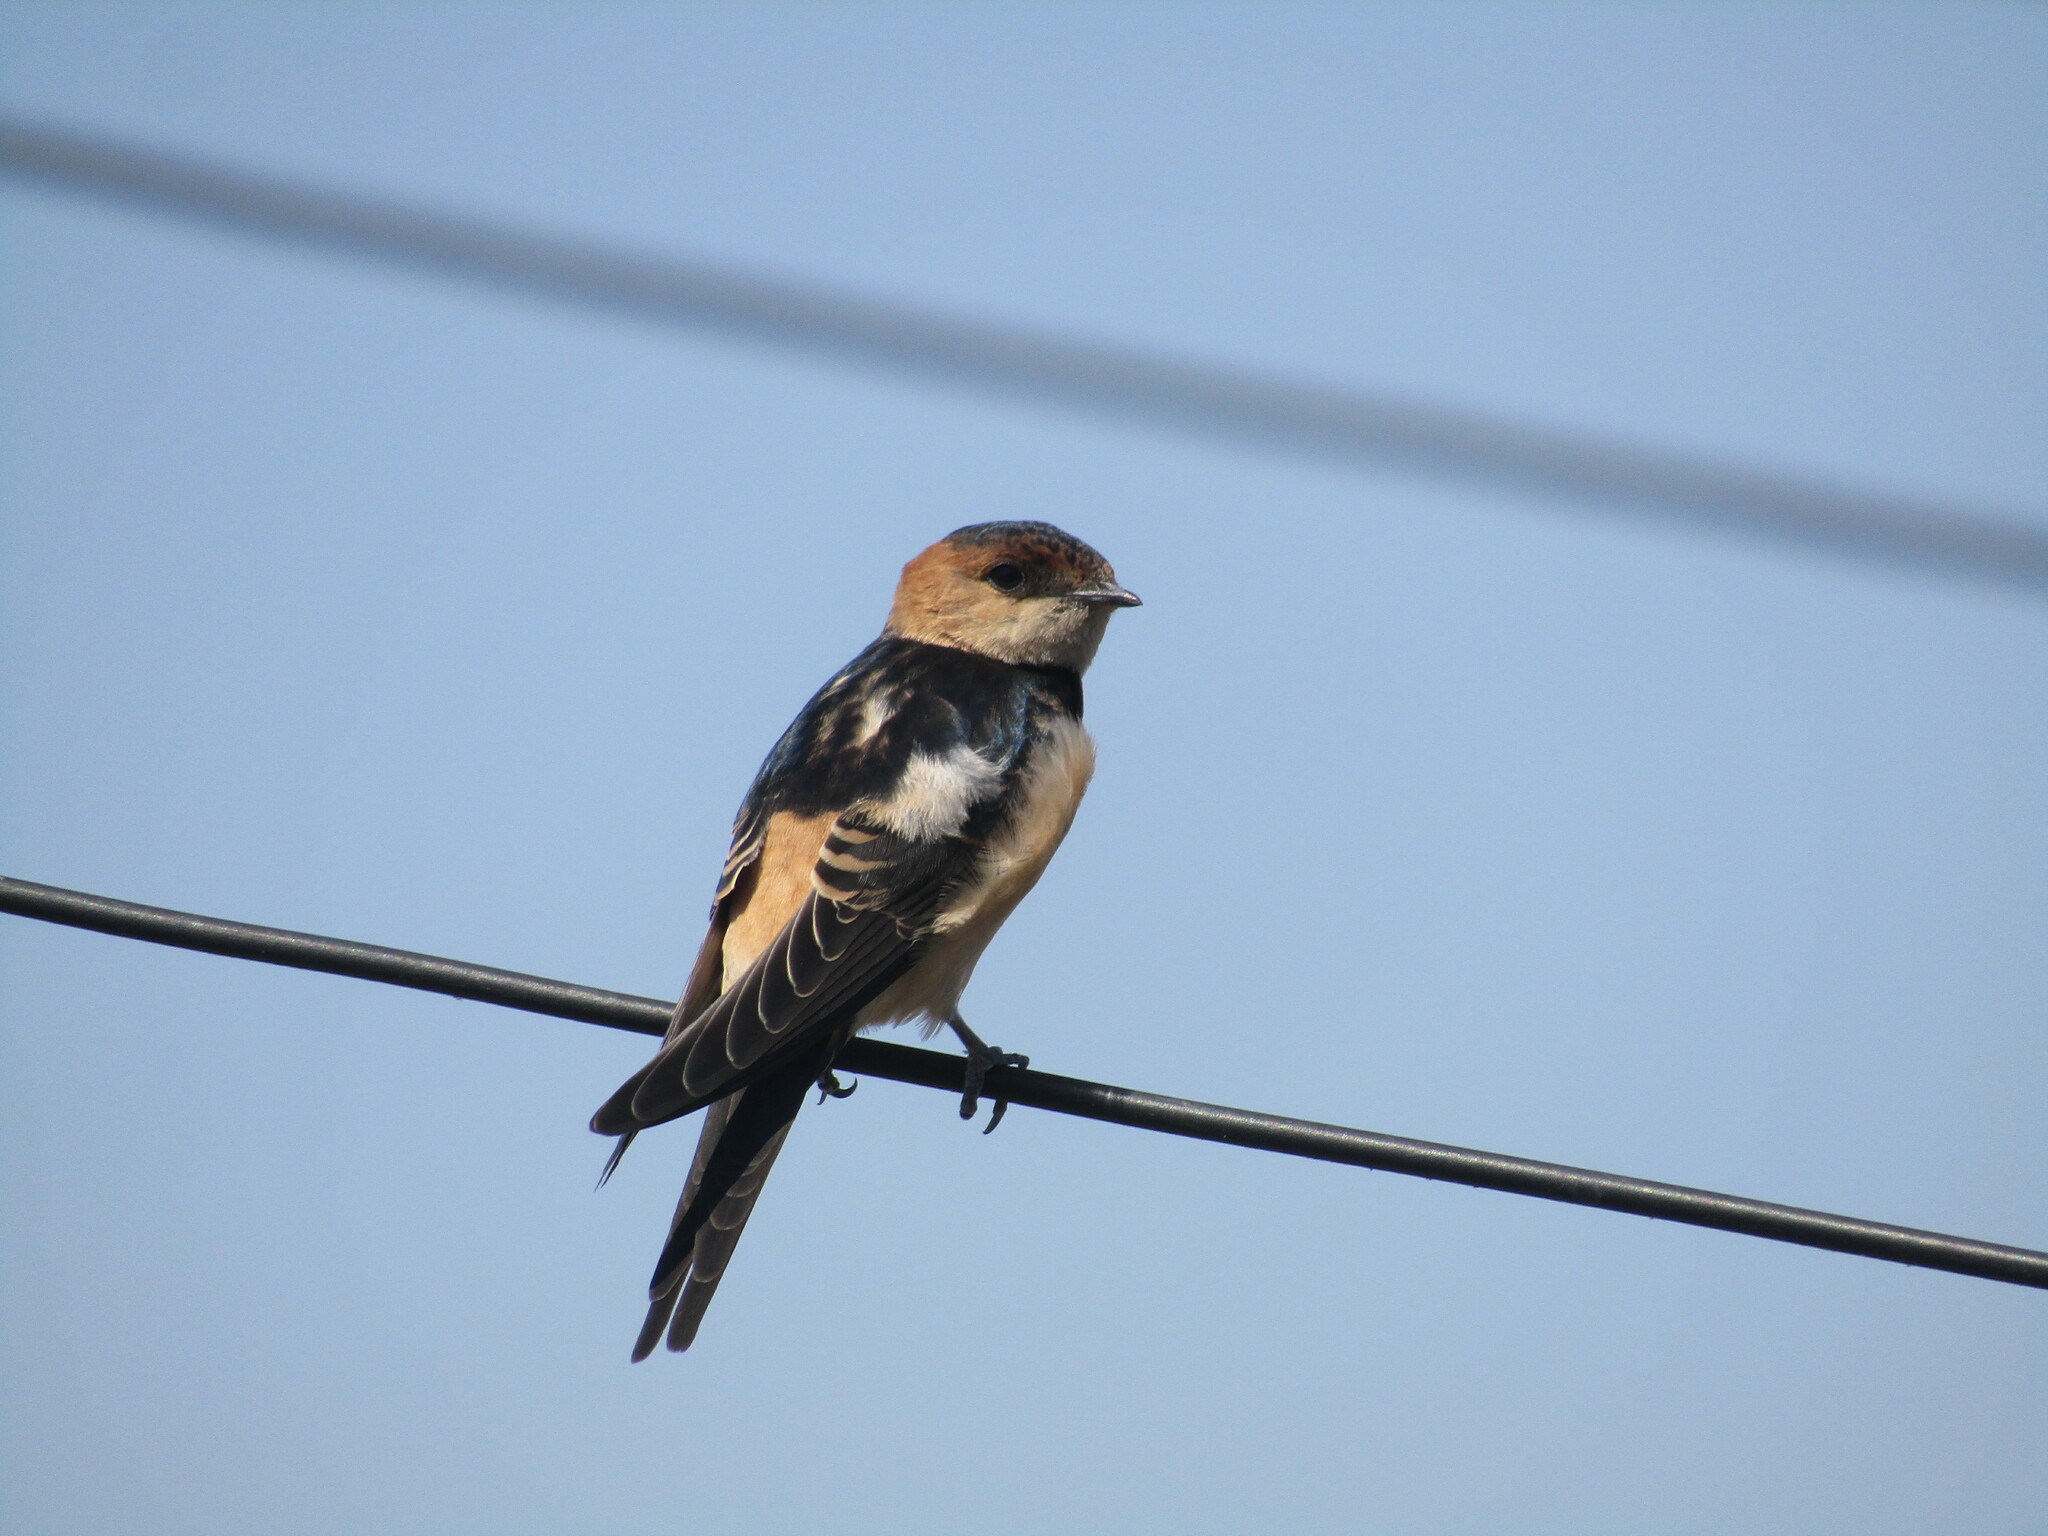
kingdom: Animalia
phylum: Chordata
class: Aves
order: Passeriformes
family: Hirundinidae
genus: Cecropis
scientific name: Cecropis daurica
